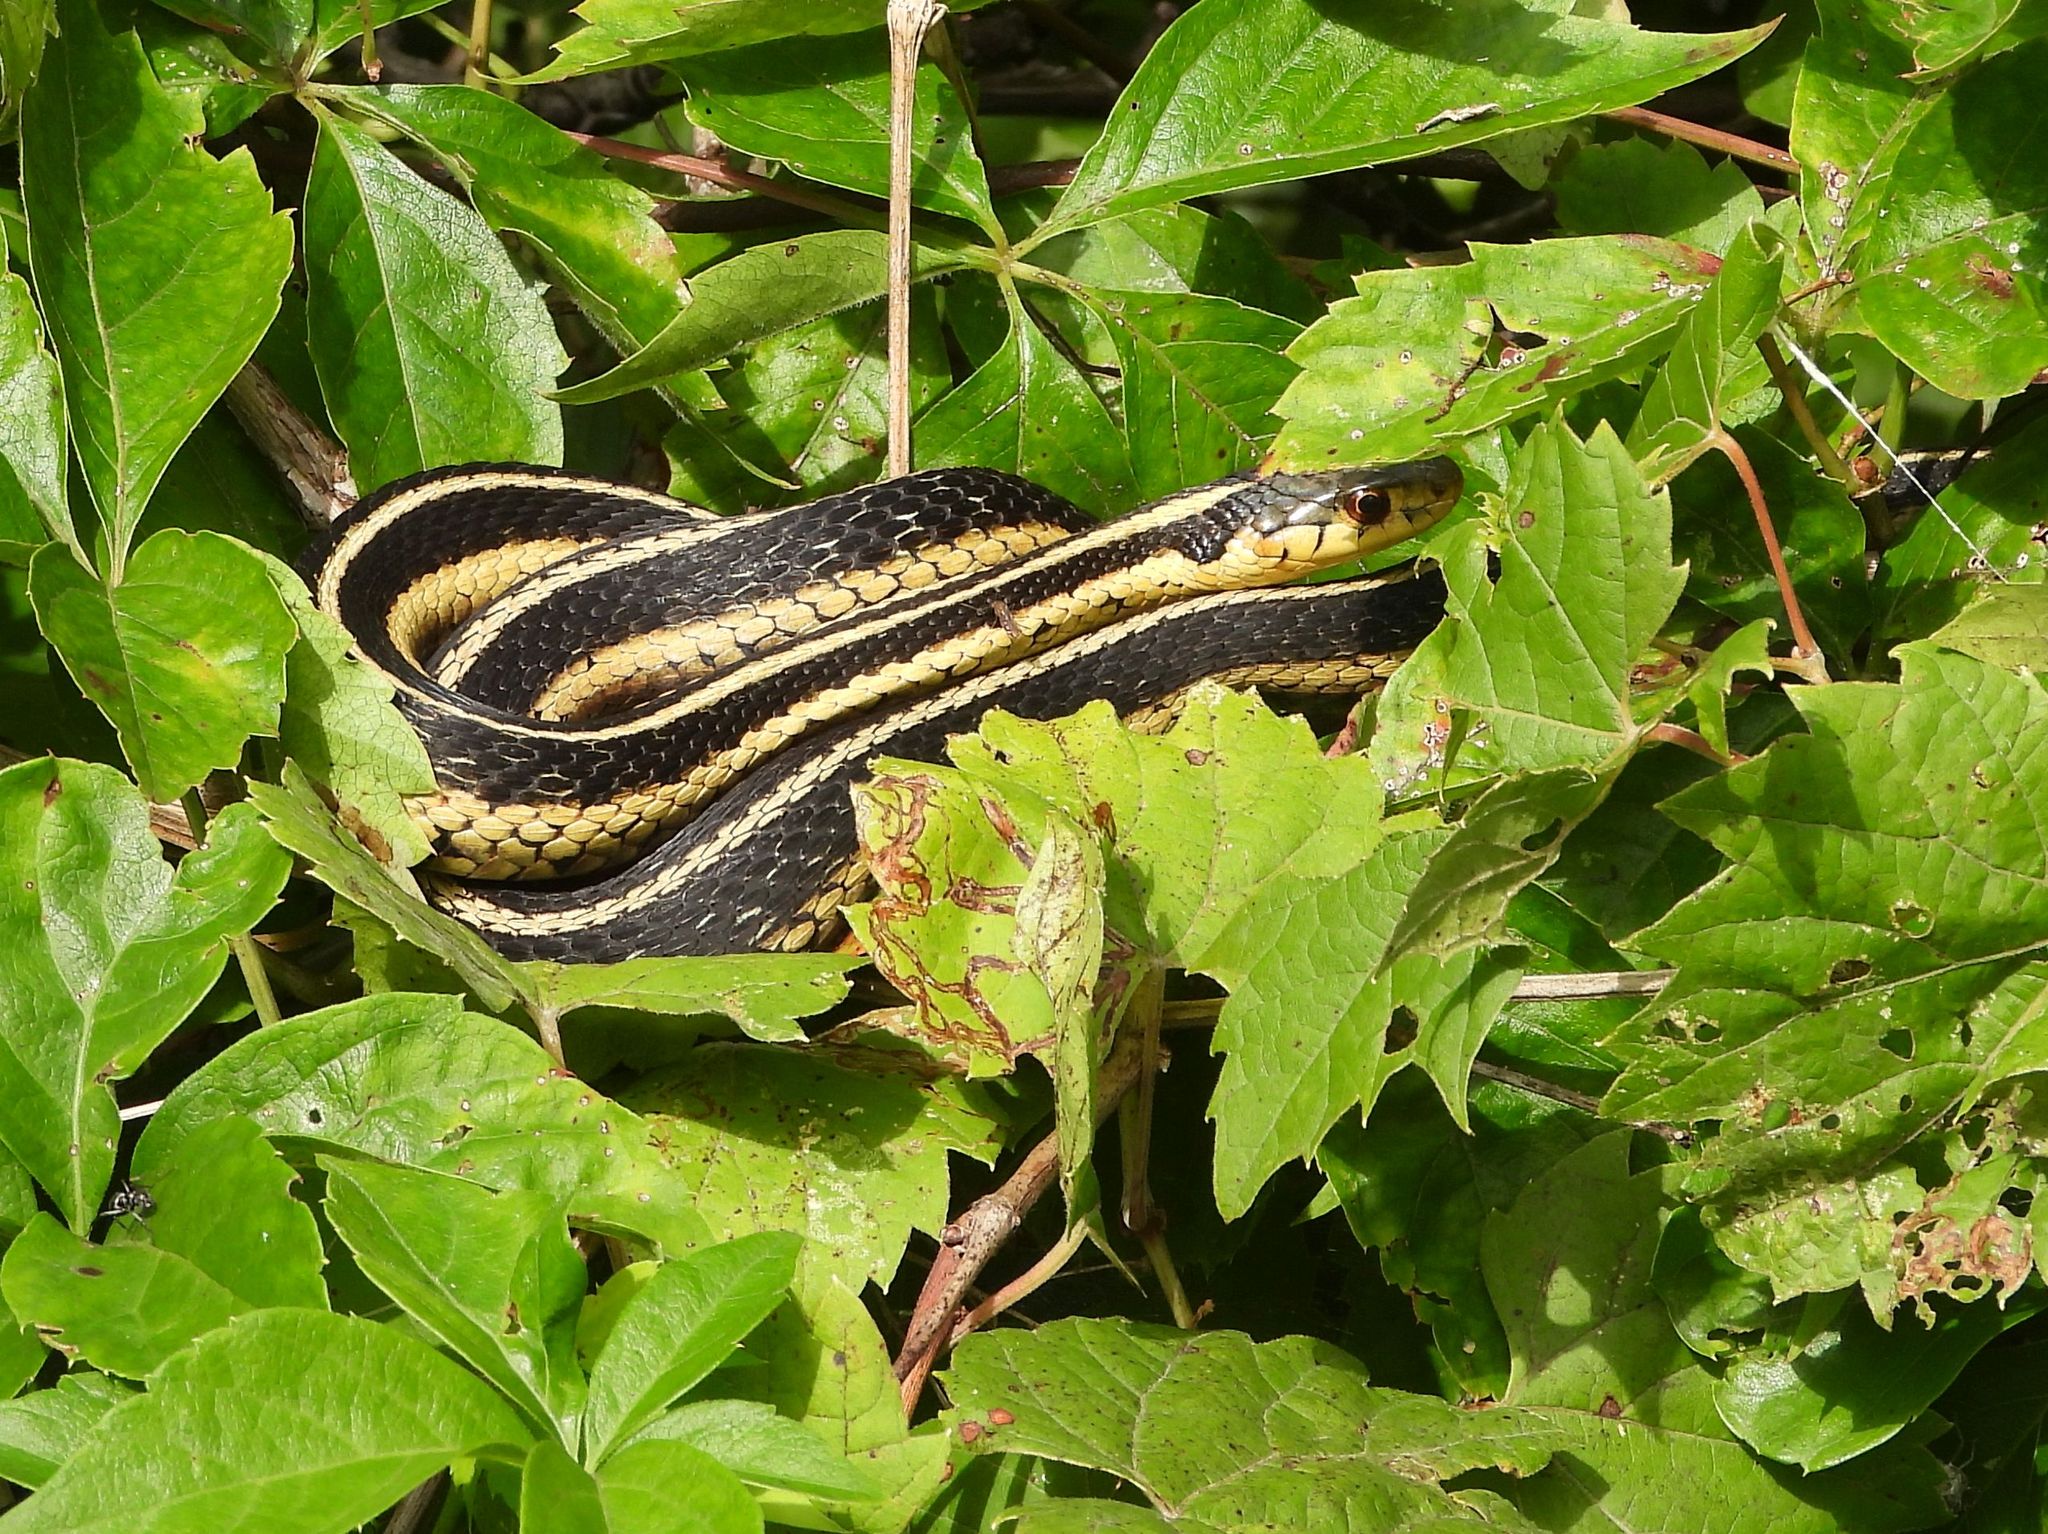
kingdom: Animalia
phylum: Chordata
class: Squamata
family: Colubridae
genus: Thamnophis
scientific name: Thamnophis sirtalis
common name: Common garter snake
